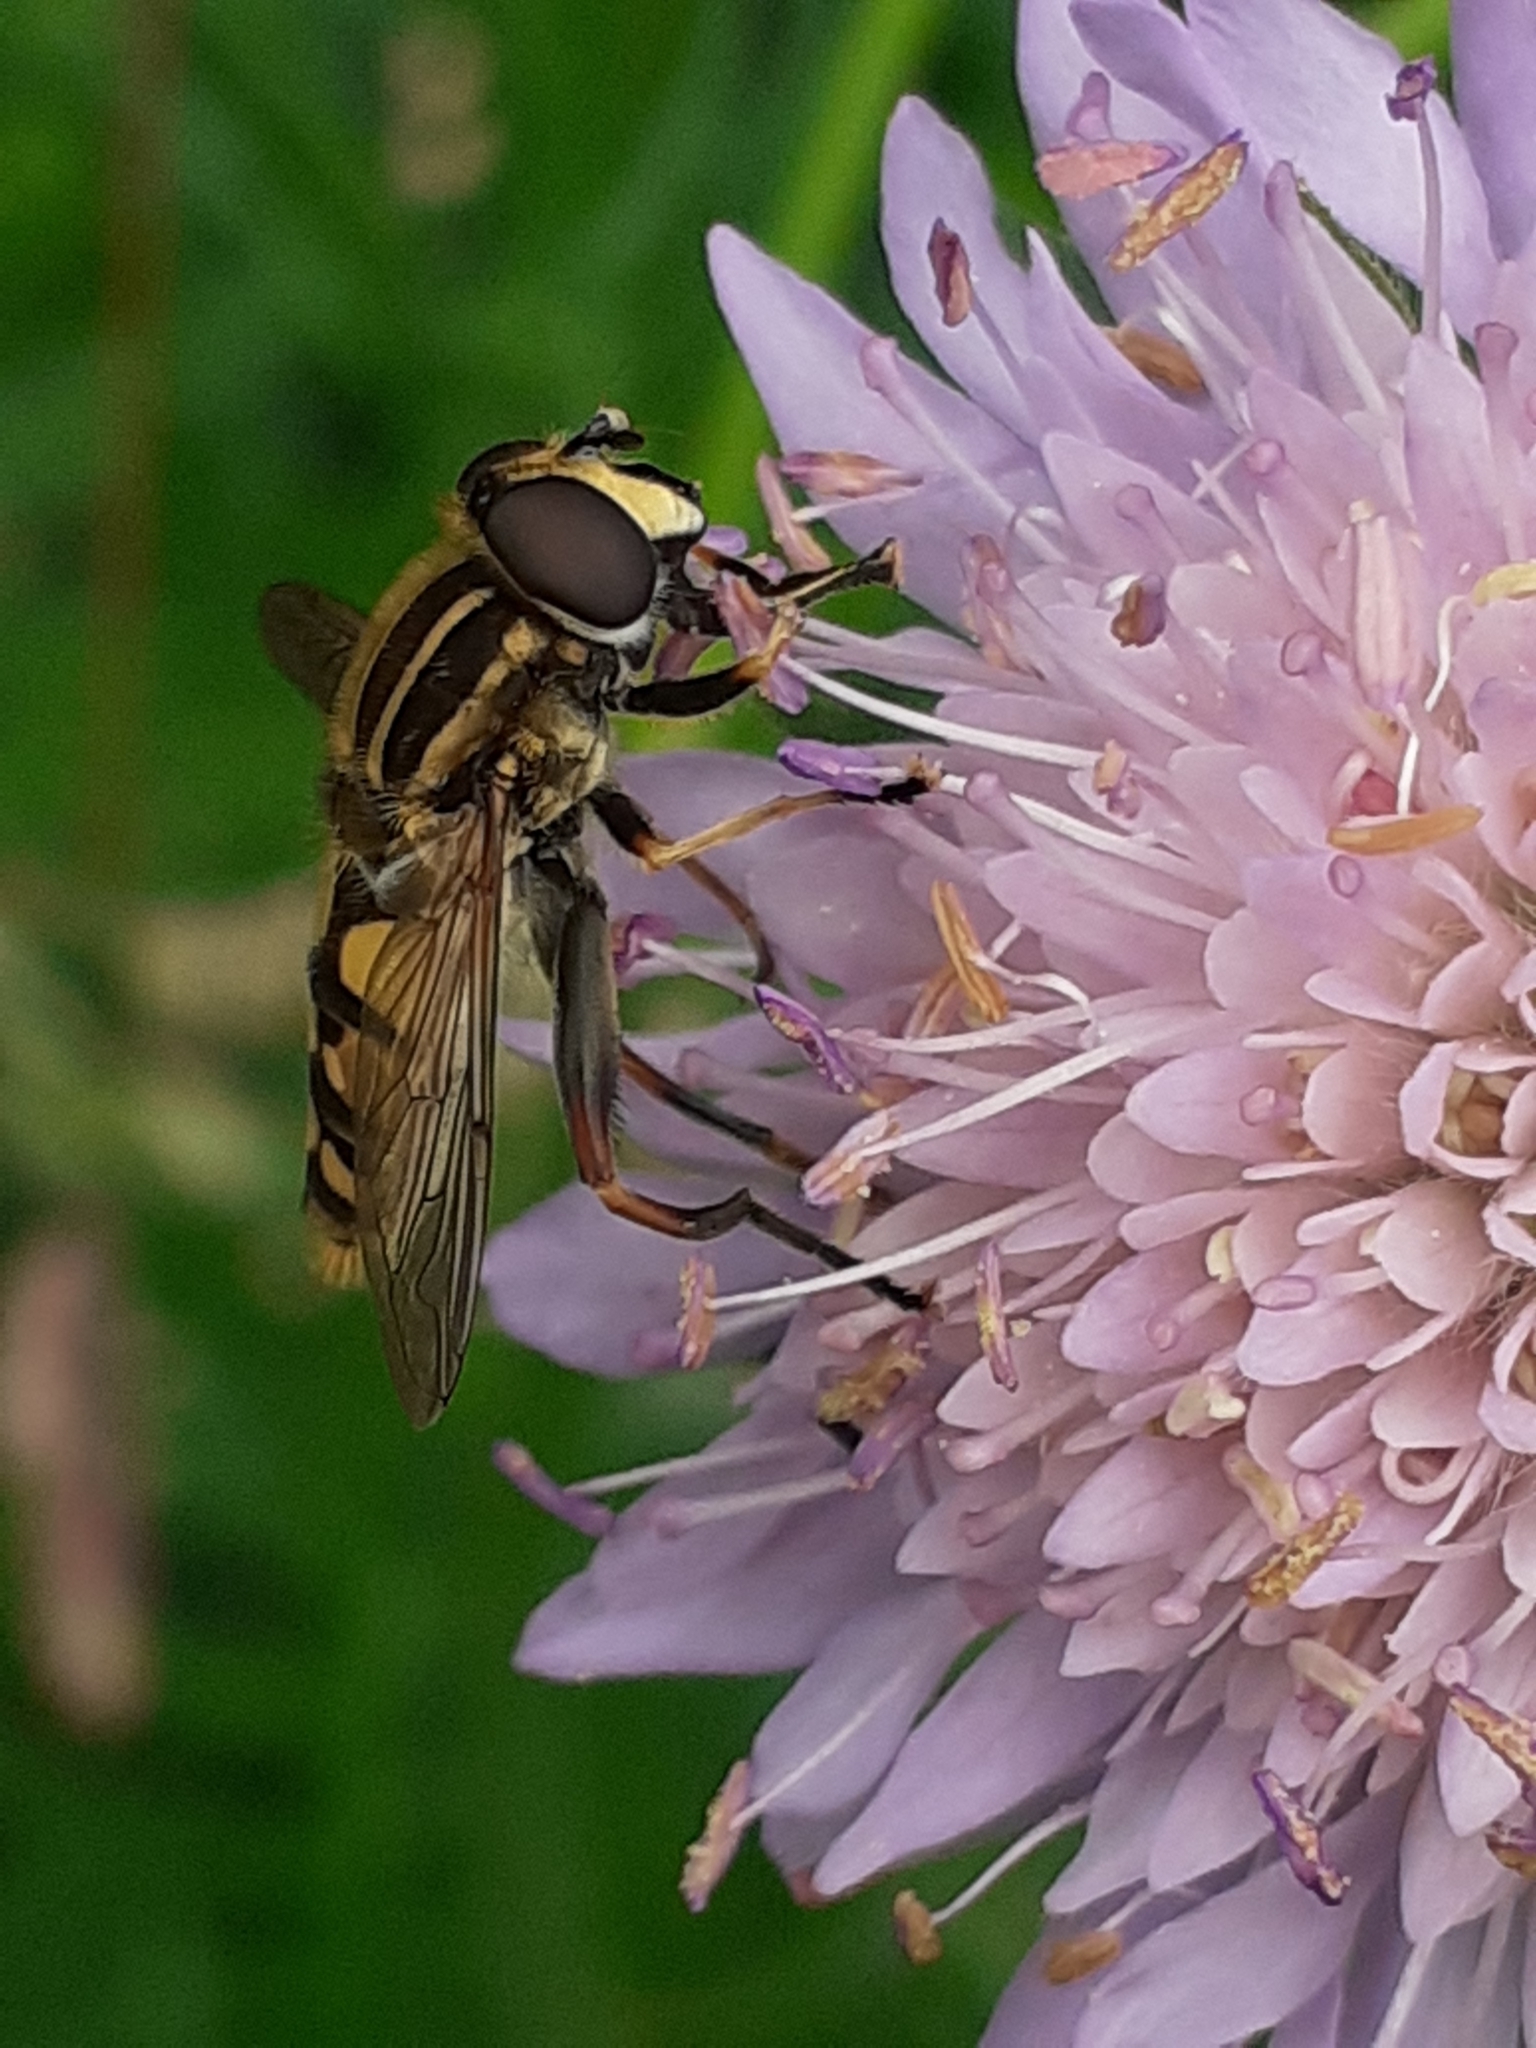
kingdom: Animalia
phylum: Arthropoda
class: Insecta
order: Diptera
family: Syrphidae
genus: Helophilus
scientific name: Helophilus pendulus
